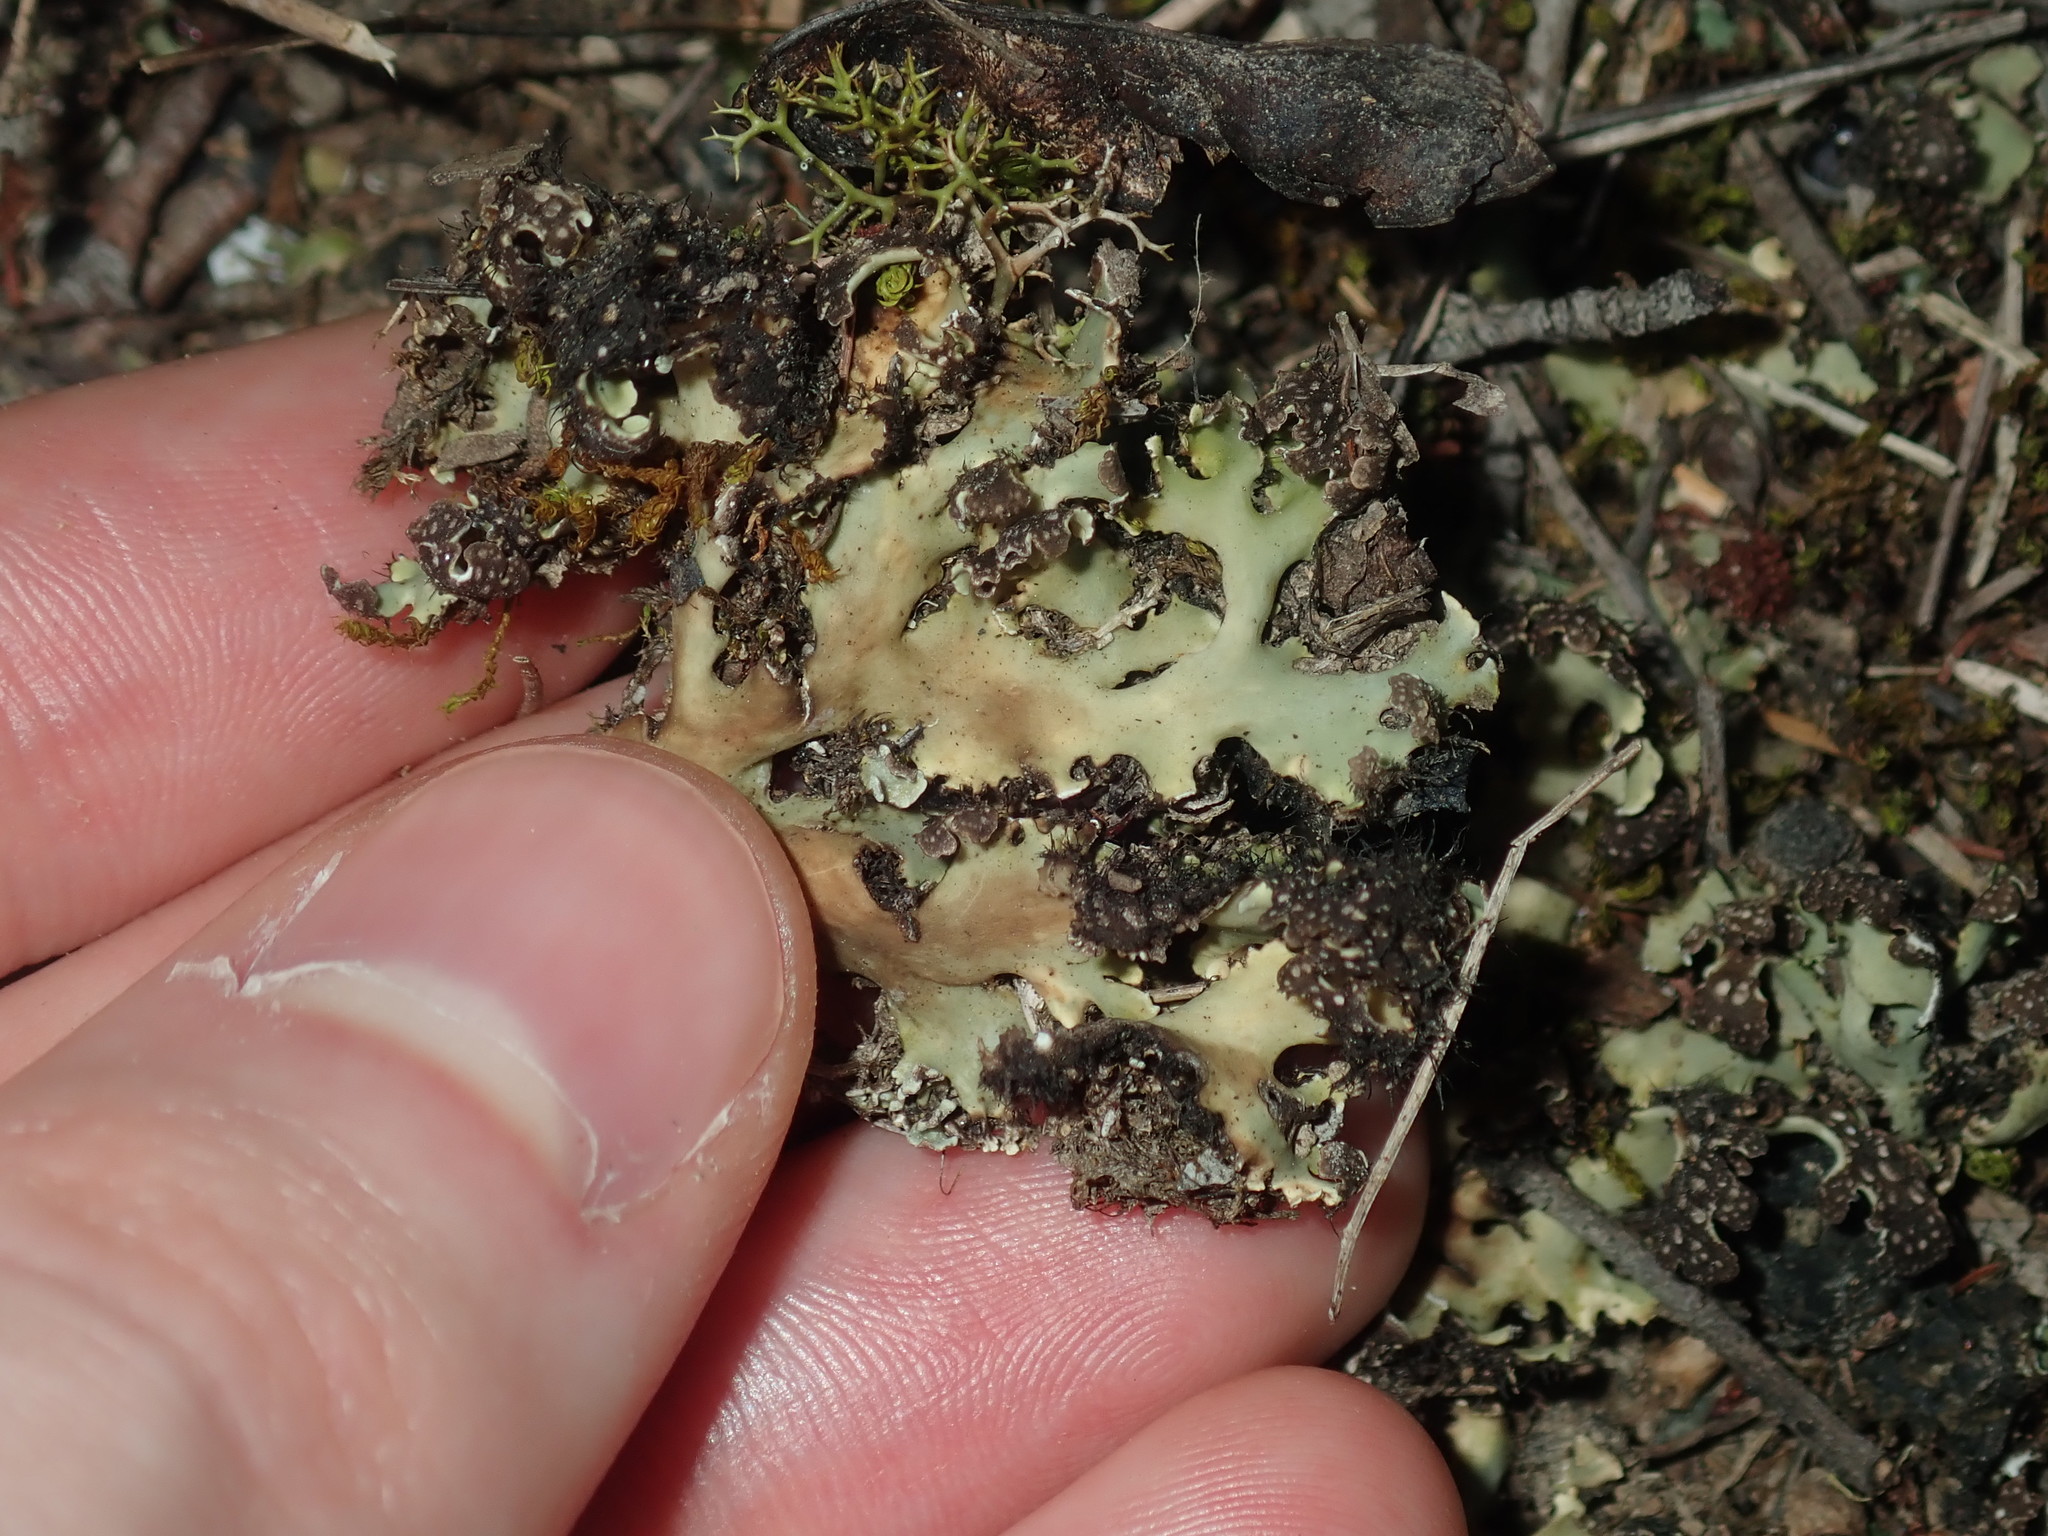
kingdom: Fungi
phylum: Ascomycota
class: Lecanoromycetes
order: Lecanorales
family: Cladoniaceae
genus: Cladia
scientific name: Cladia muelleri
